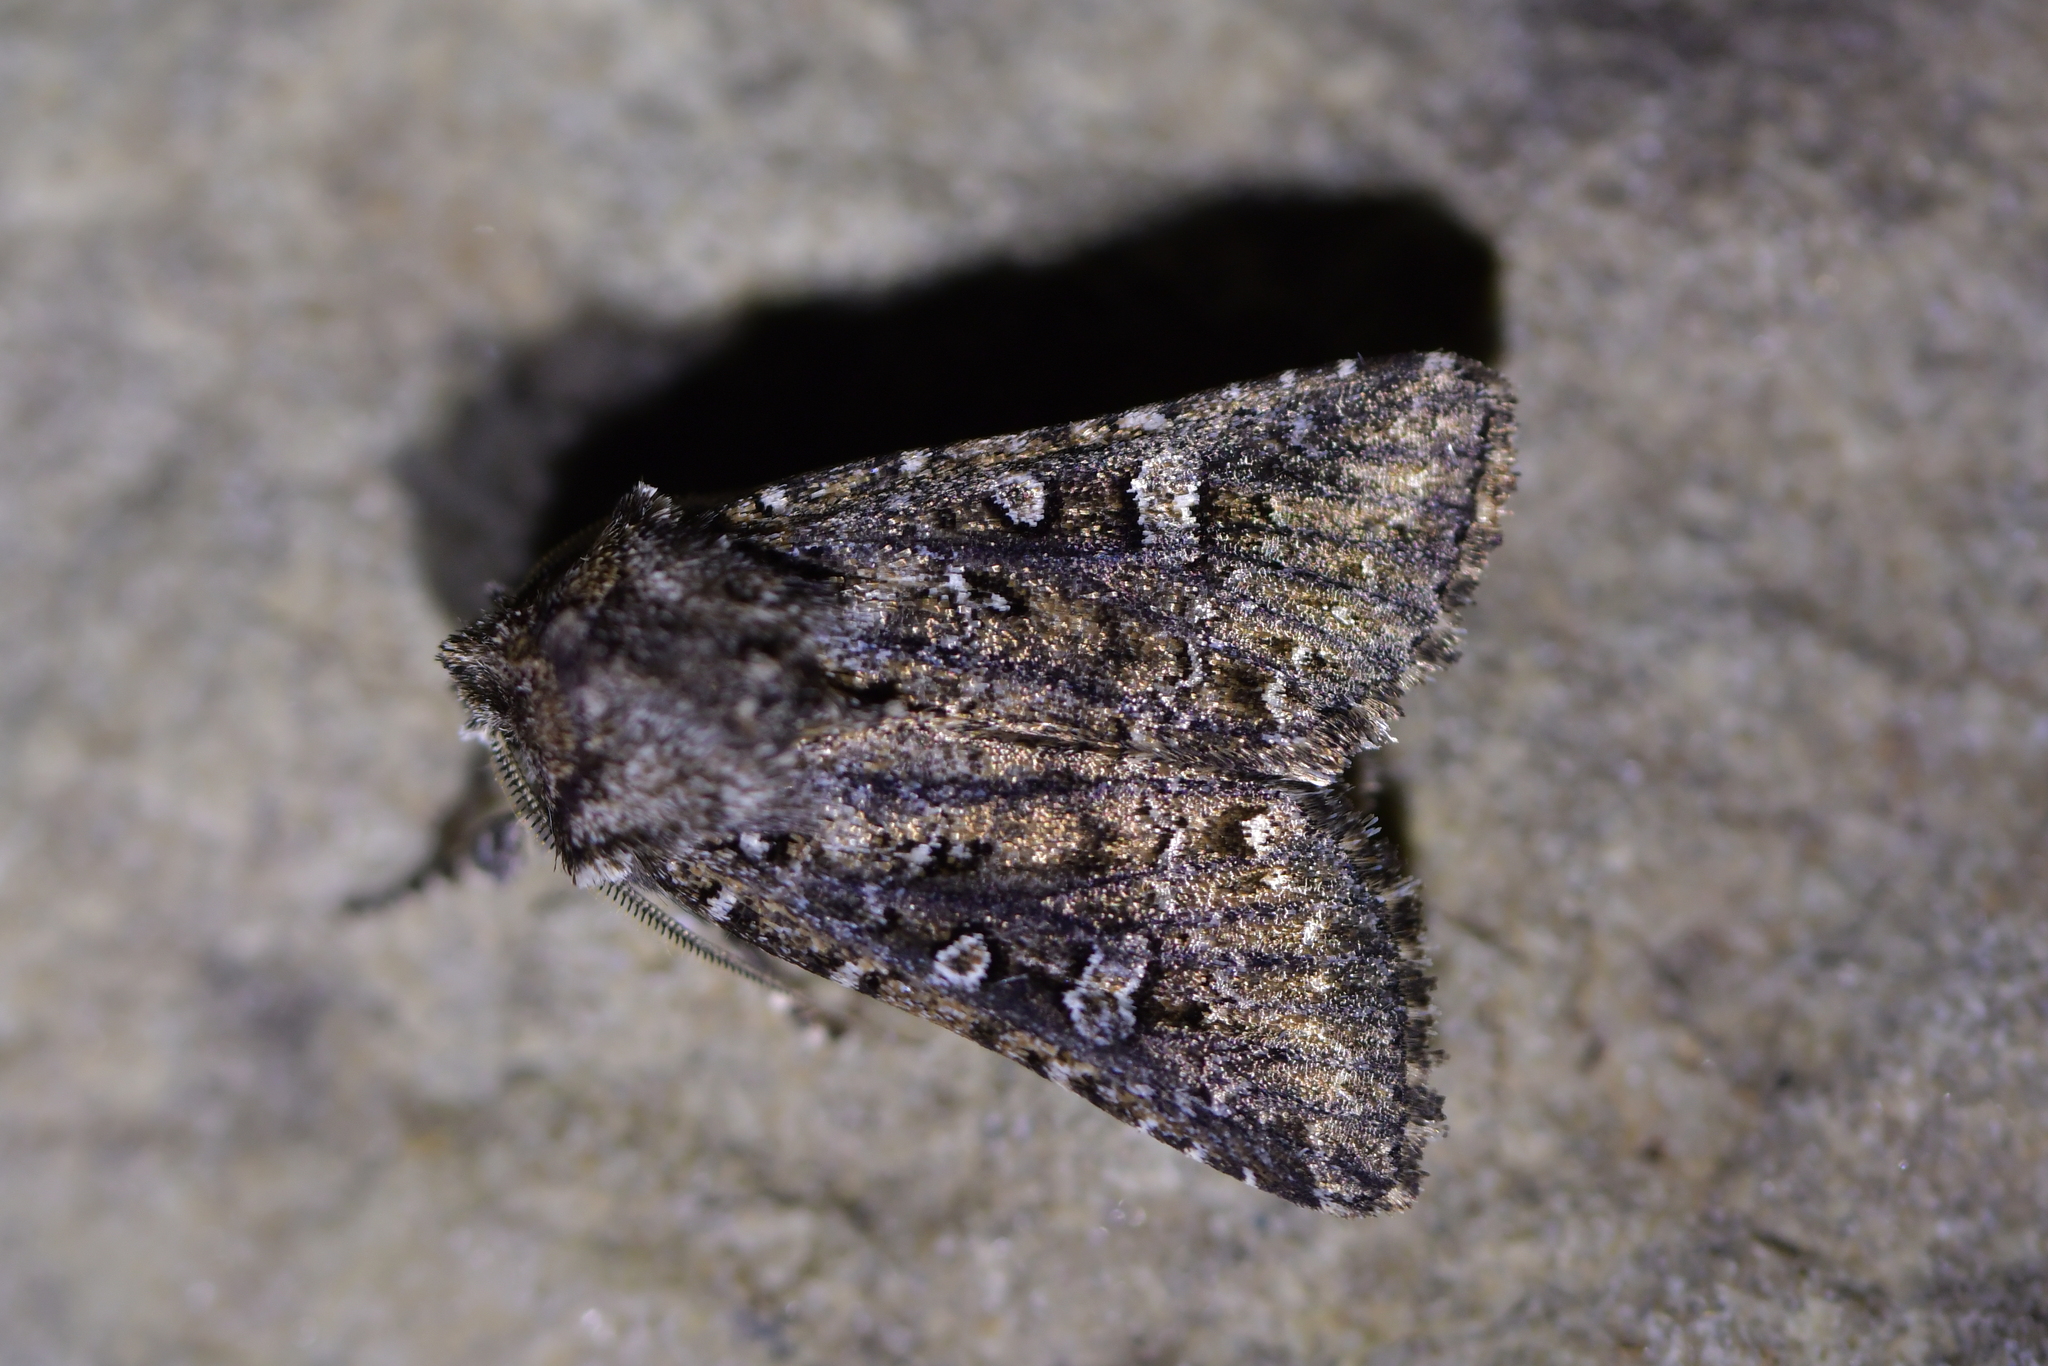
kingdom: Animalia
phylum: Arthropoda
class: Insecta
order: Lepidoptera
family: Noctuidae
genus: Ichneutica
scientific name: Ichneutica lithias
